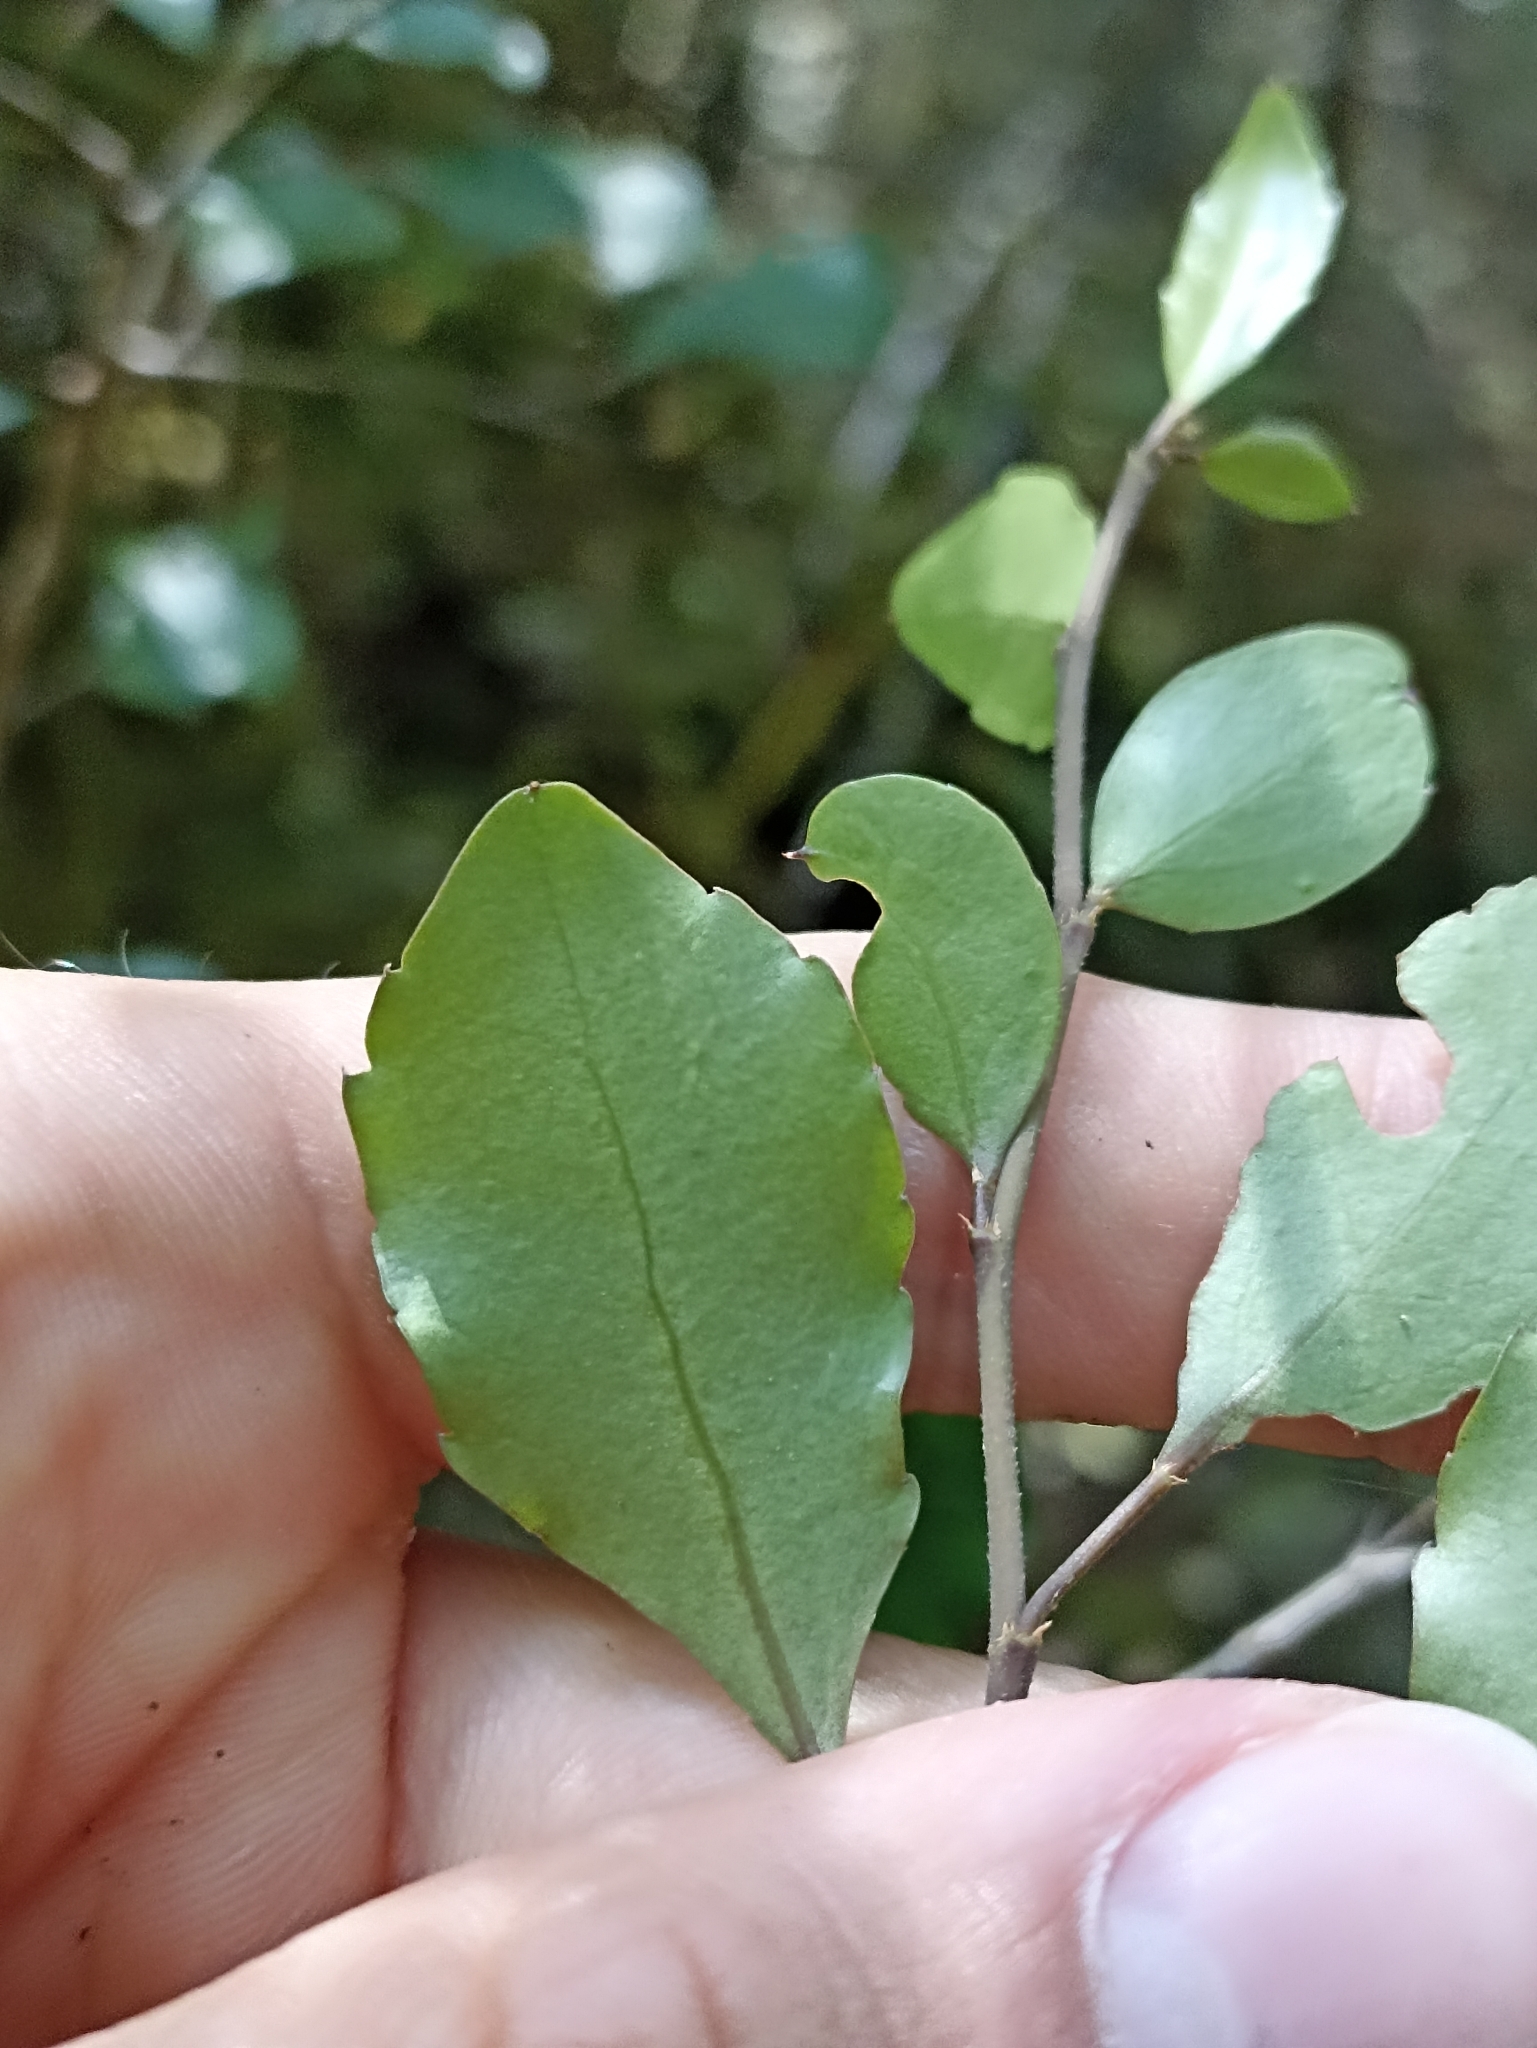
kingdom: Plantae
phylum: Tracheophyta
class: Magnoliopsida
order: Apiales
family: Araliaceae
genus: Raukaua
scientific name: Raukaua anomalus
